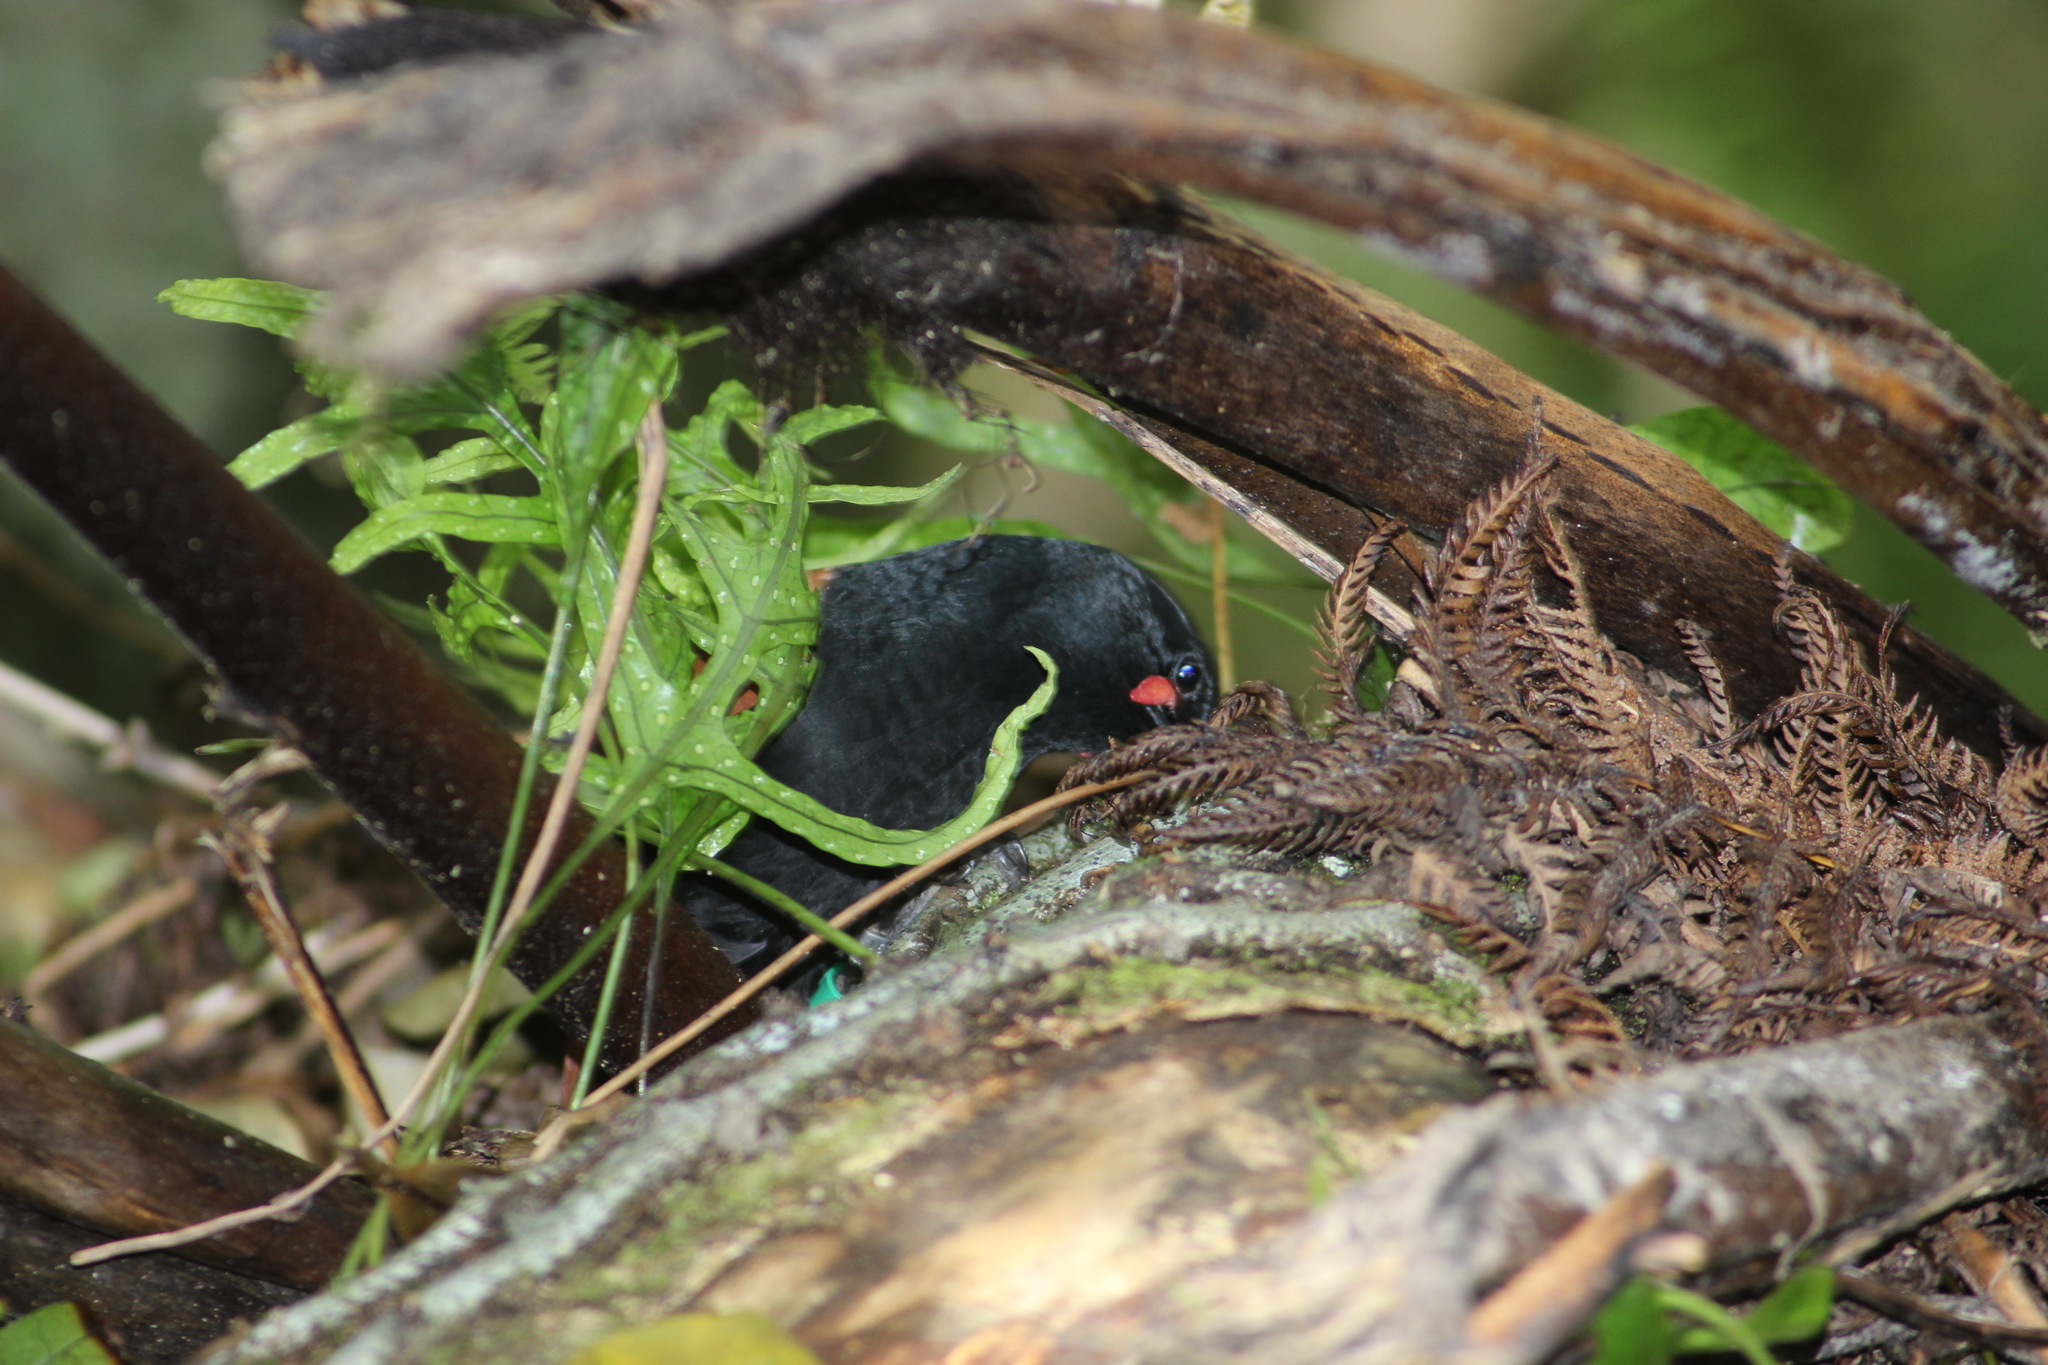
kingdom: Animalia
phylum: Chordata
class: Aves
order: Passeriformes
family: Callaeatidae
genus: Philesturnus
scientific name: Philesturnus carunculatus
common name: South island saddleback
